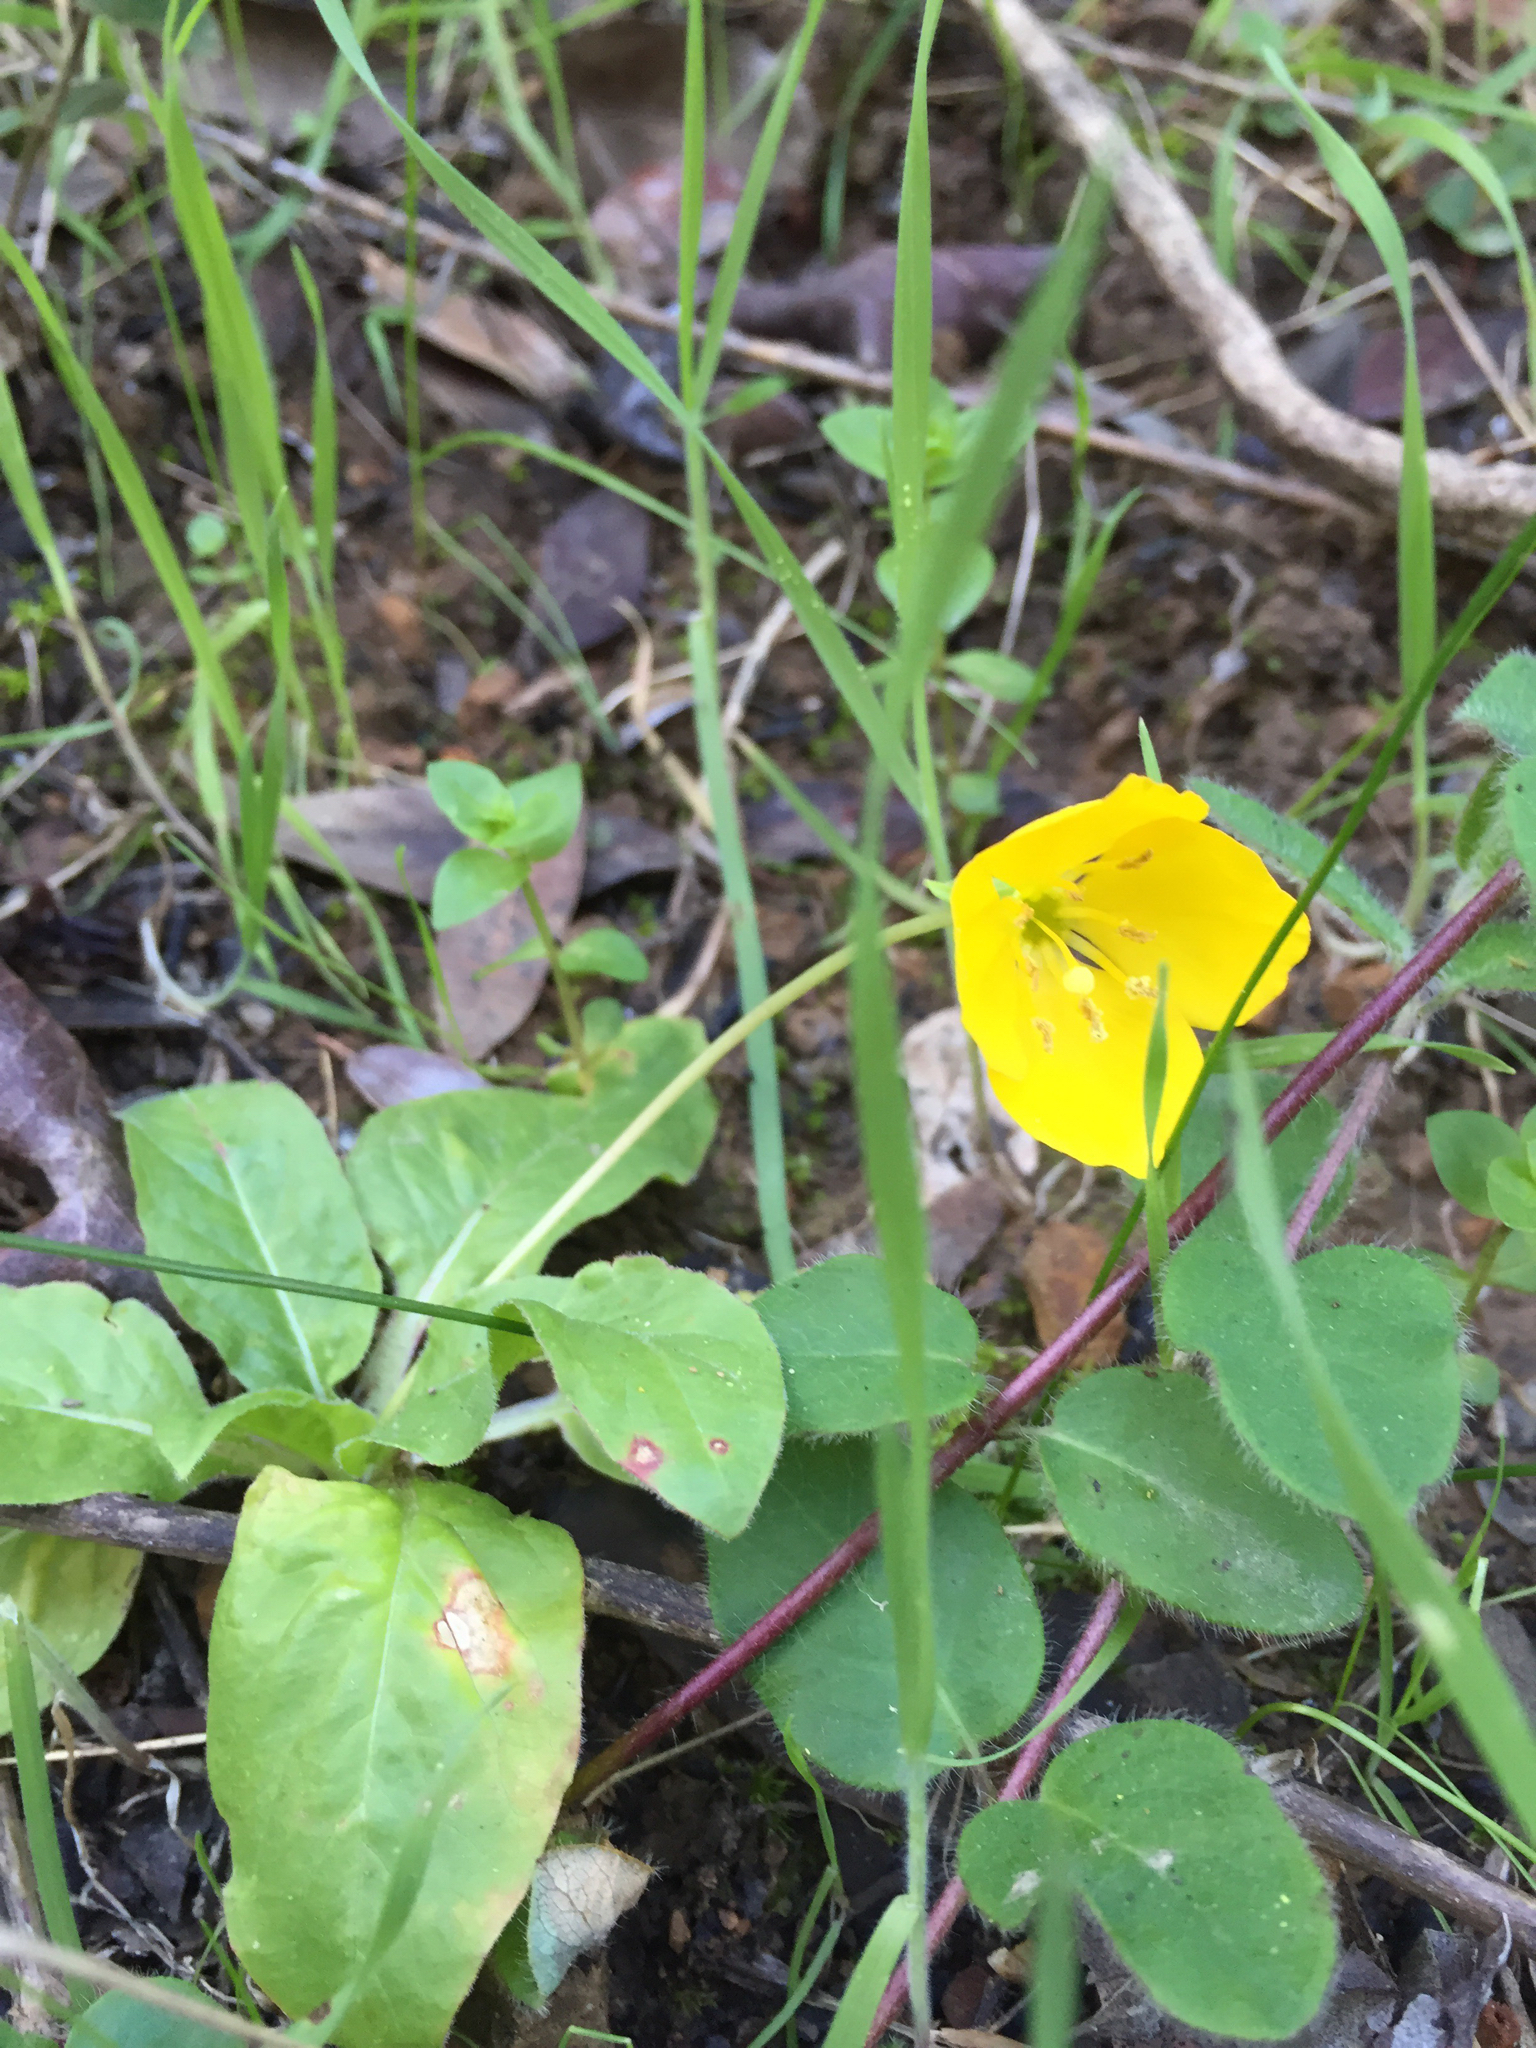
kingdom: Plantae
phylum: Tracheophyta
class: Magnoliopsida
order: Myrtales
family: Onagraceae
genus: Taraxia
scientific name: Taraxia ovata
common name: Goldeneggs
